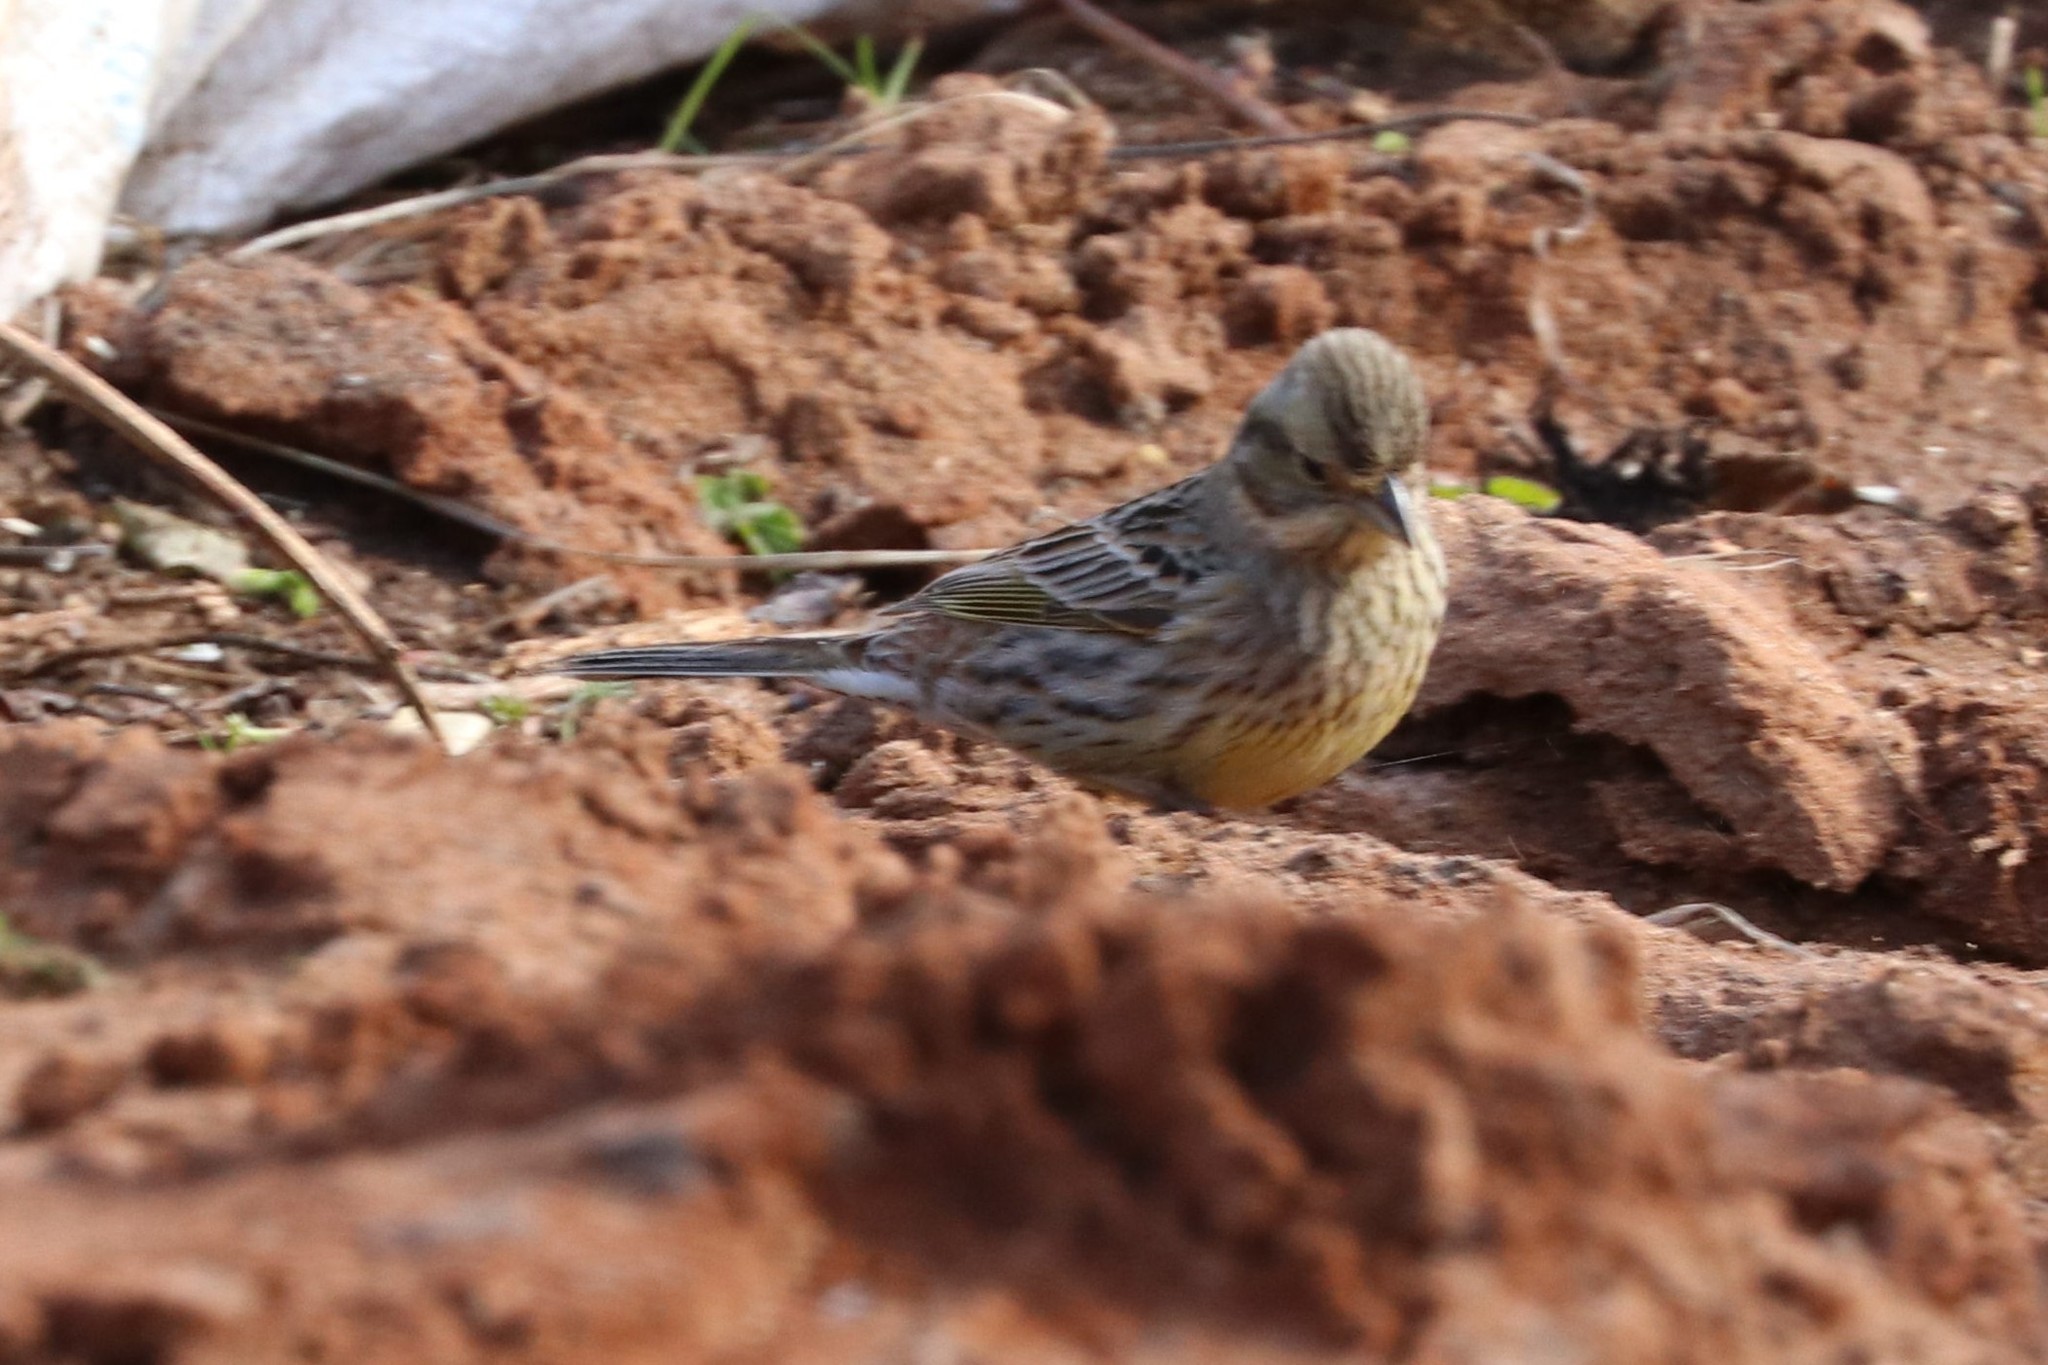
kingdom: Animalia
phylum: Chordata
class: Aves
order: Passeriformes
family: Emberizidae
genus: Emberiza
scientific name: Emberiza citrinella
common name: Yellowhammer
